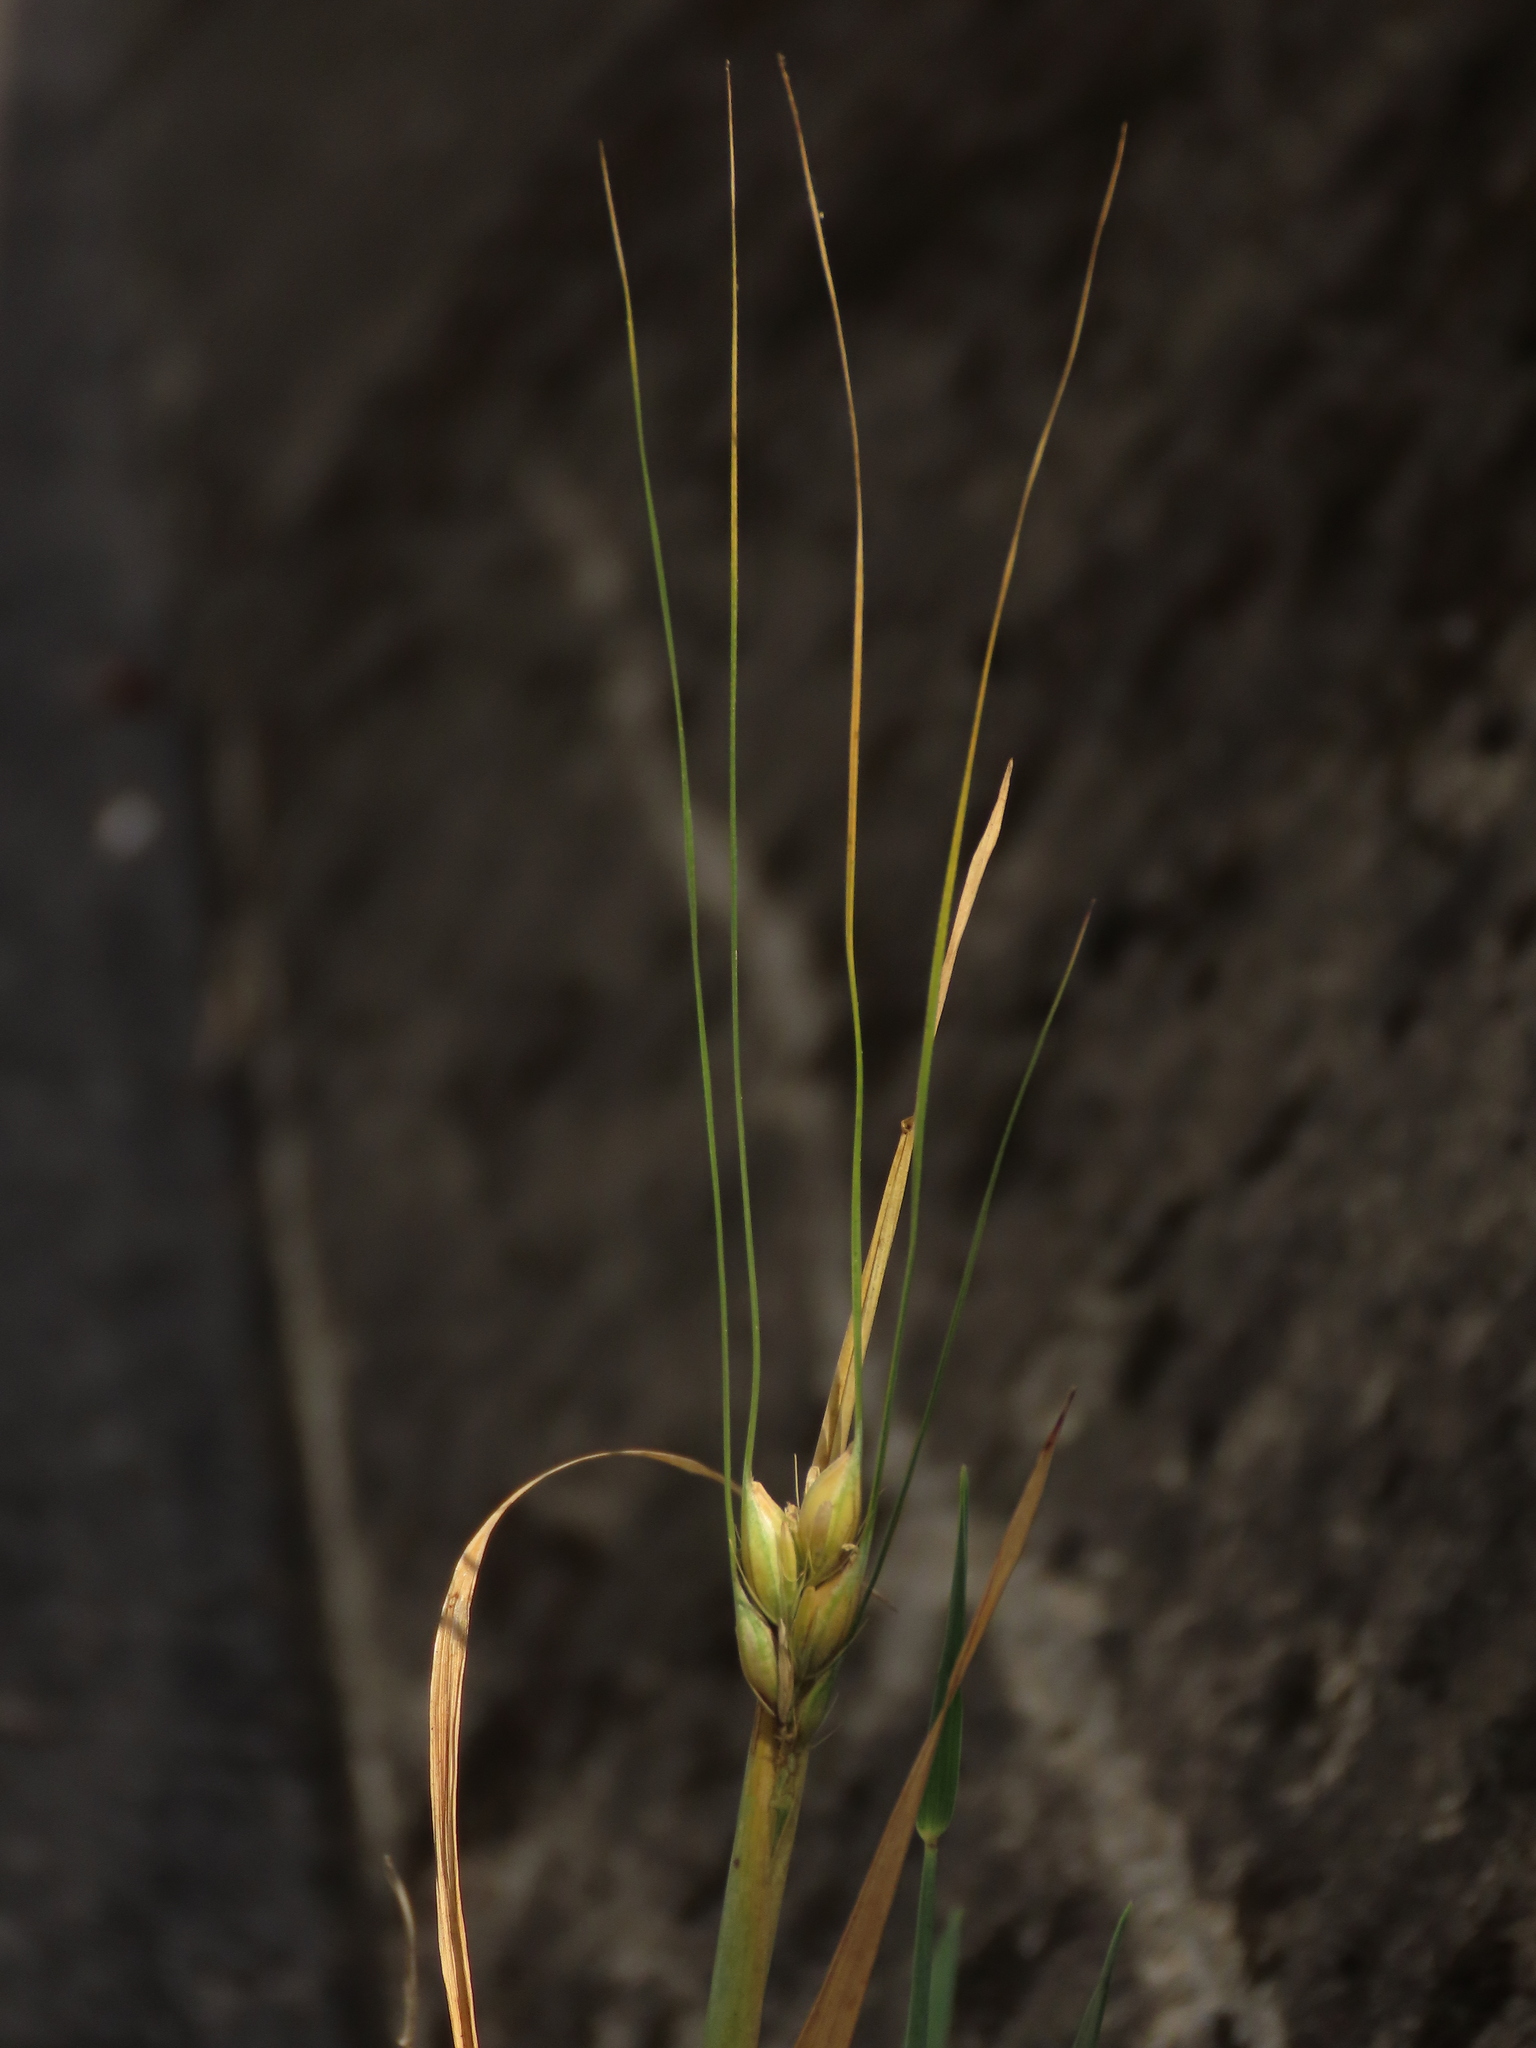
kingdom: Plantae
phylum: Tracheophyta
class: Liliopsida
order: Poales
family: Poaceae
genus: Triticum
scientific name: Triticum aestivum
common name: Common wheat
